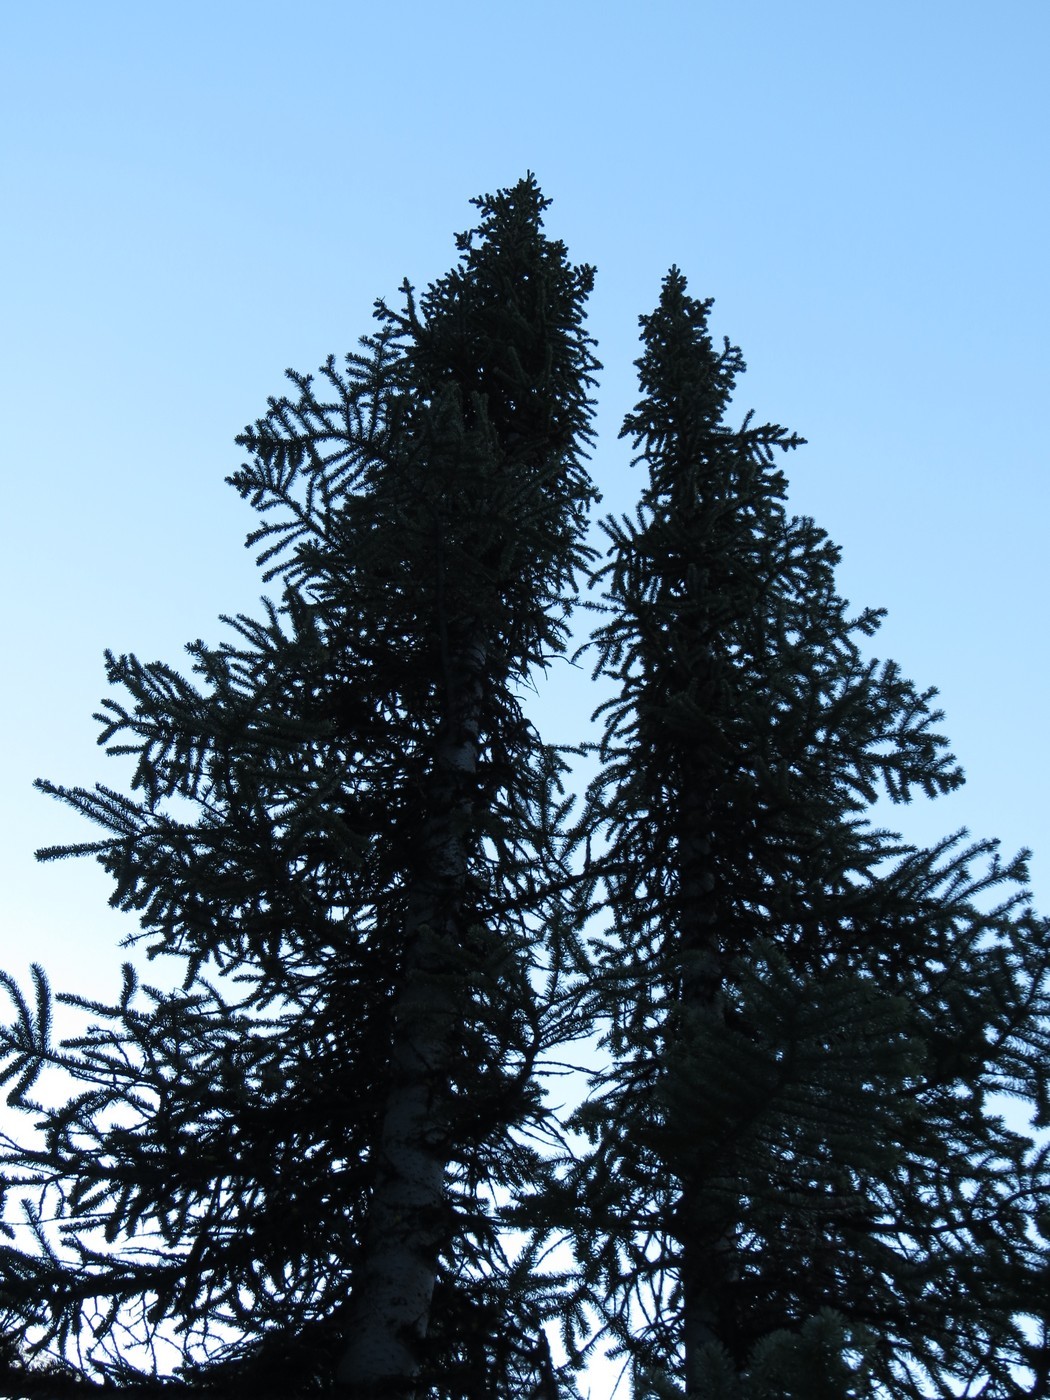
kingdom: Plantae
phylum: Tracheophyta
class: Pinopsida
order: Pinales
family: Pinaceae
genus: Abies
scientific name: Abies lasiocarpa
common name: Subalpine fir
